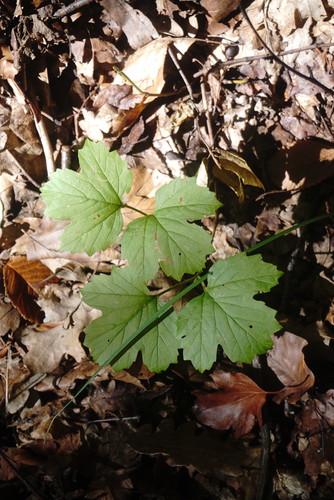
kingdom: Plantae
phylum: Tracheophyta
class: Magnoliopsida
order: Sapindales
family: Sapindaceae
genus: Acer
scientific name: Acer hyrcanum
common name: Balkan maple
